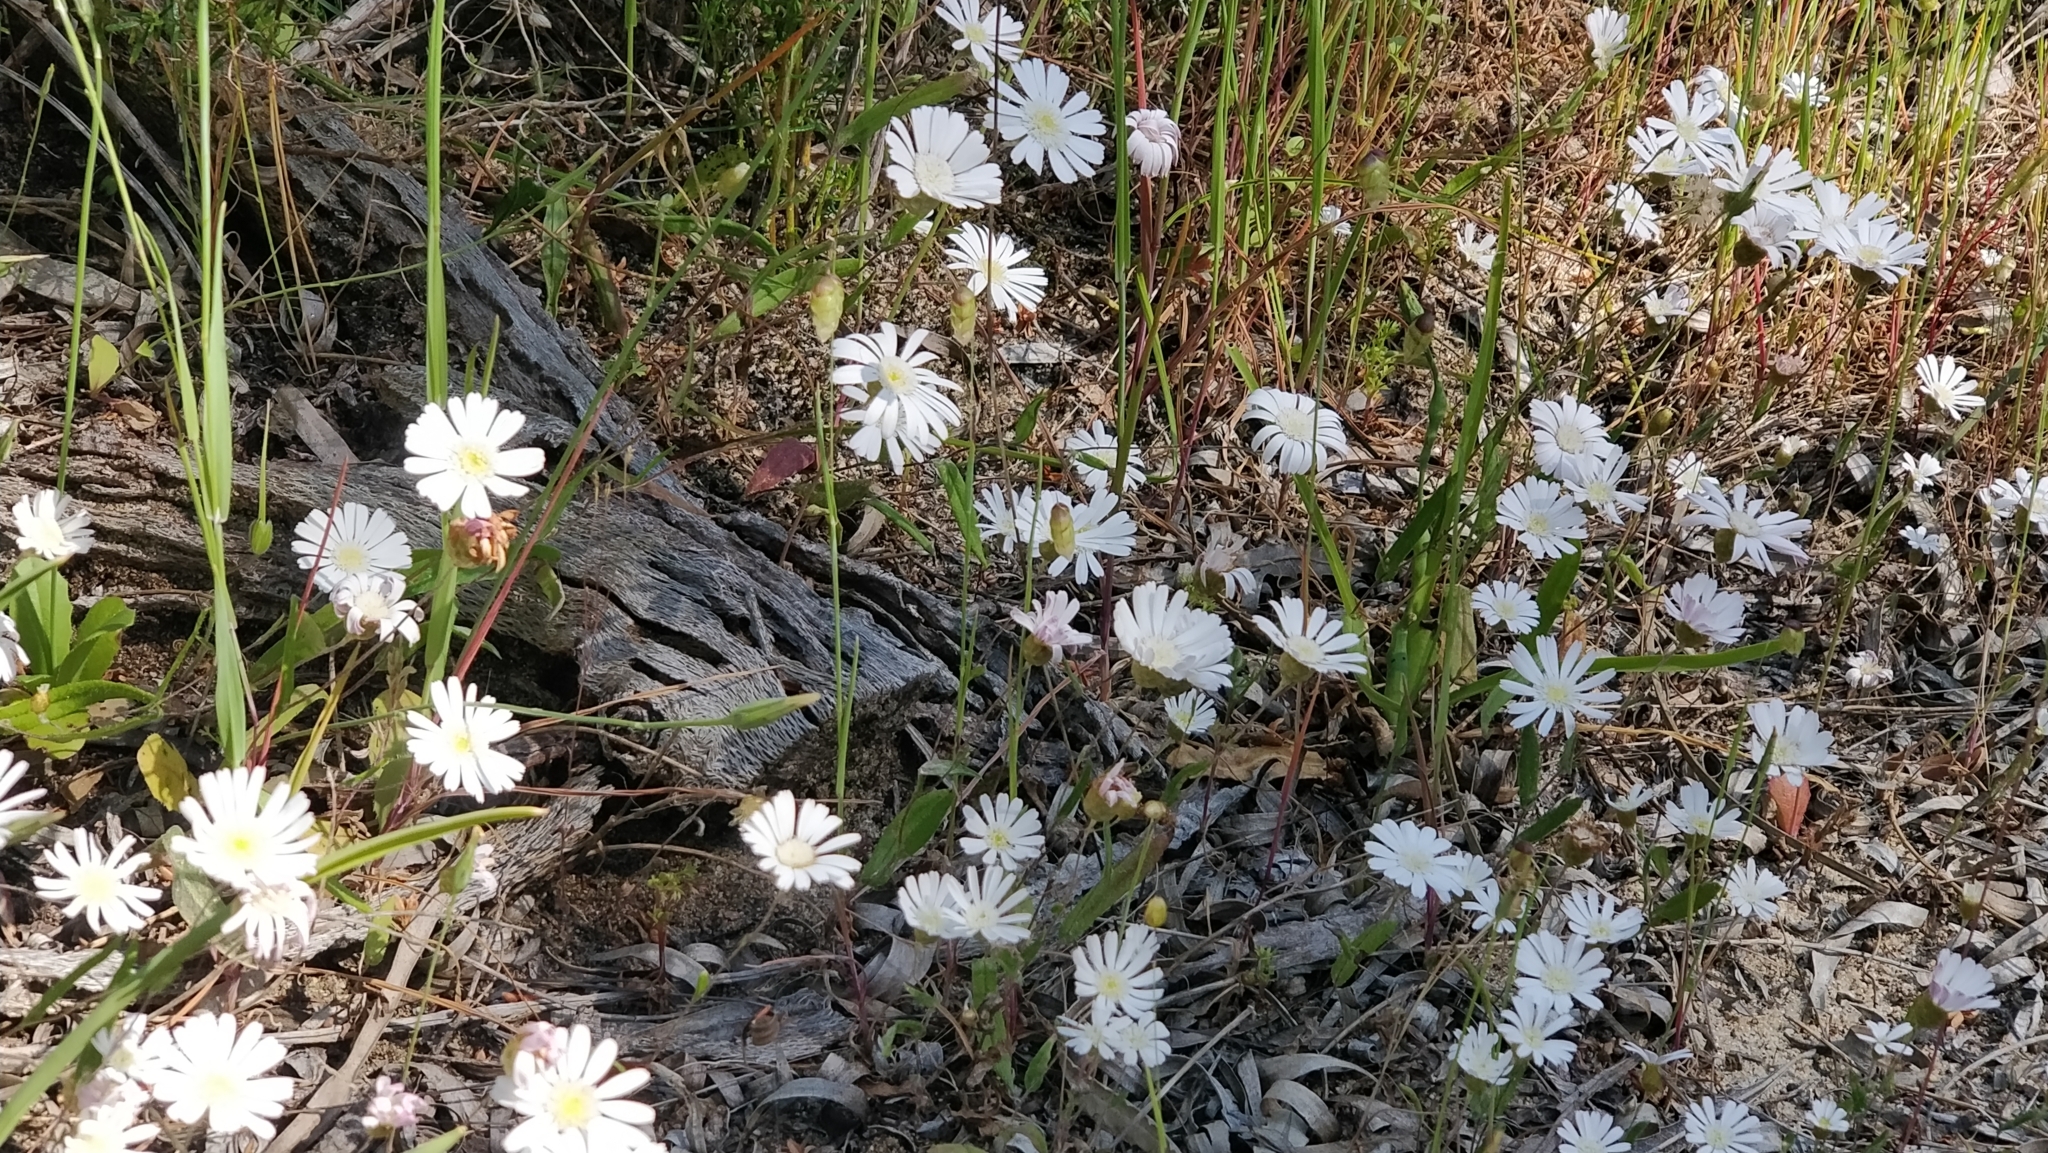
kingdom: Plantae
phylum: Tracheophyta
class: Magnoliopsida
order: Asterales
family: Asteraceae
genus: Podolepis
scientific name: Podolepis gracilis
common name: Slender podolepis
